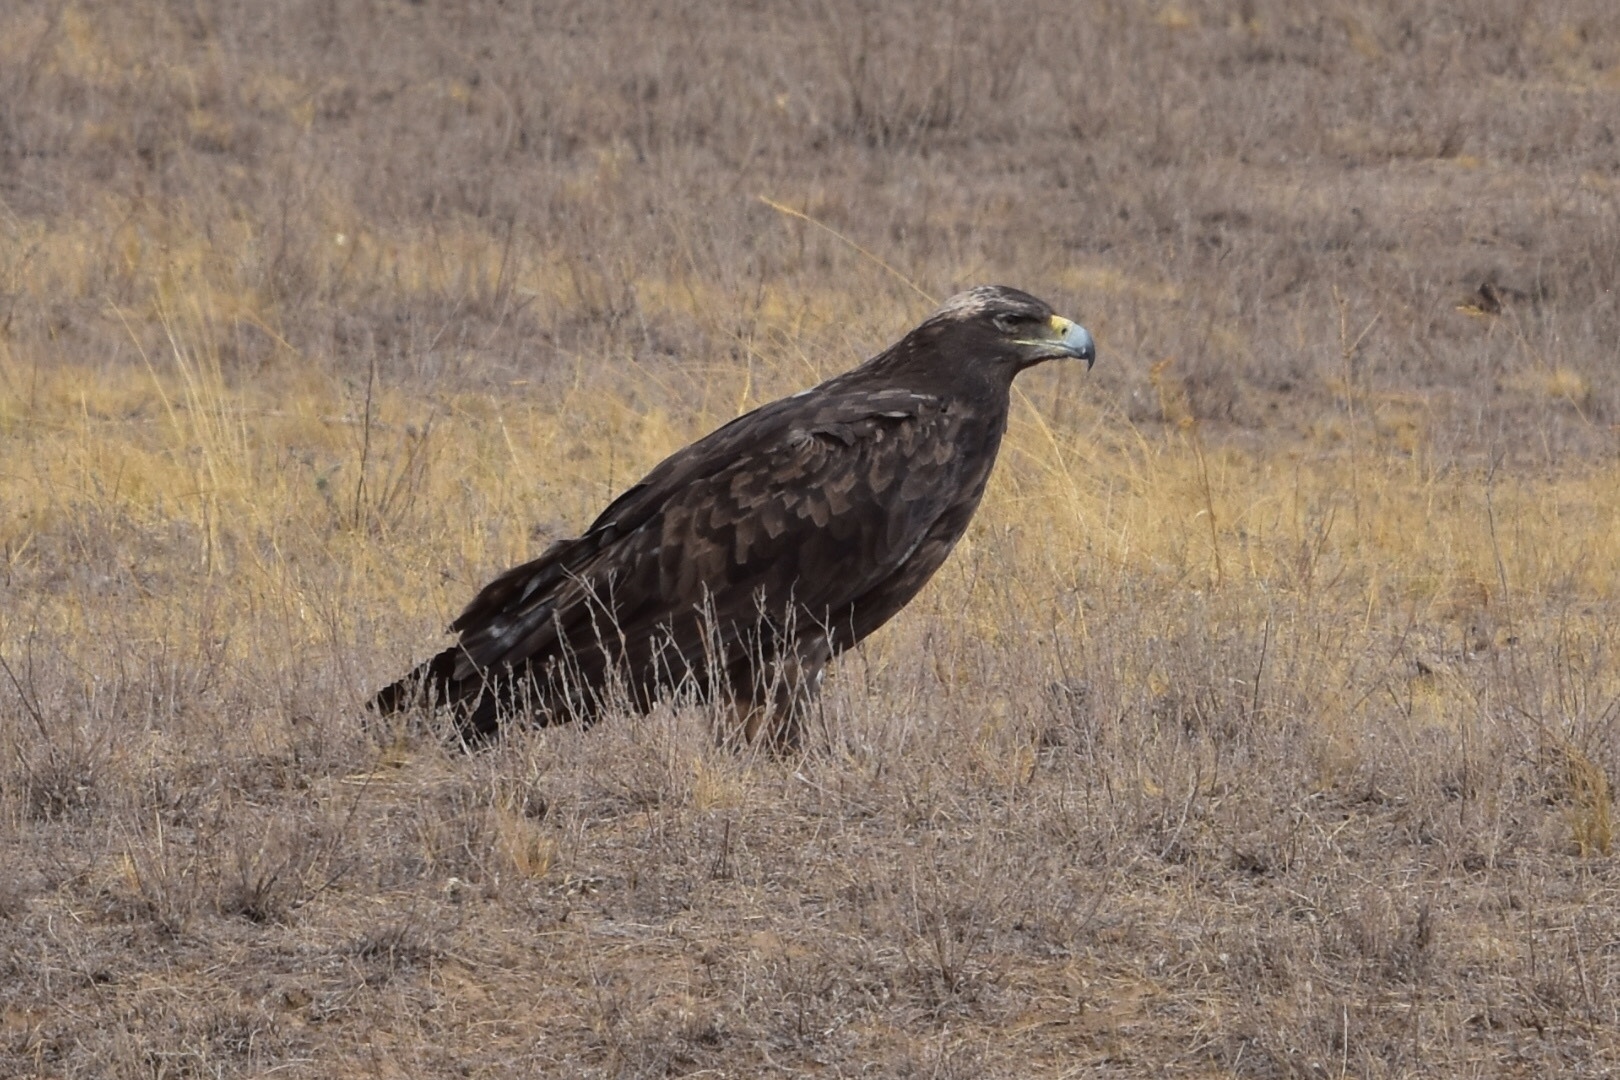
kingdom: Animalia
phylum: Chordata
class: Aves
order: Accipitriformes
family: Accipitridae
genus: Aquila
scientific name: Aquila nipalensis
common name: Steppe eagle
